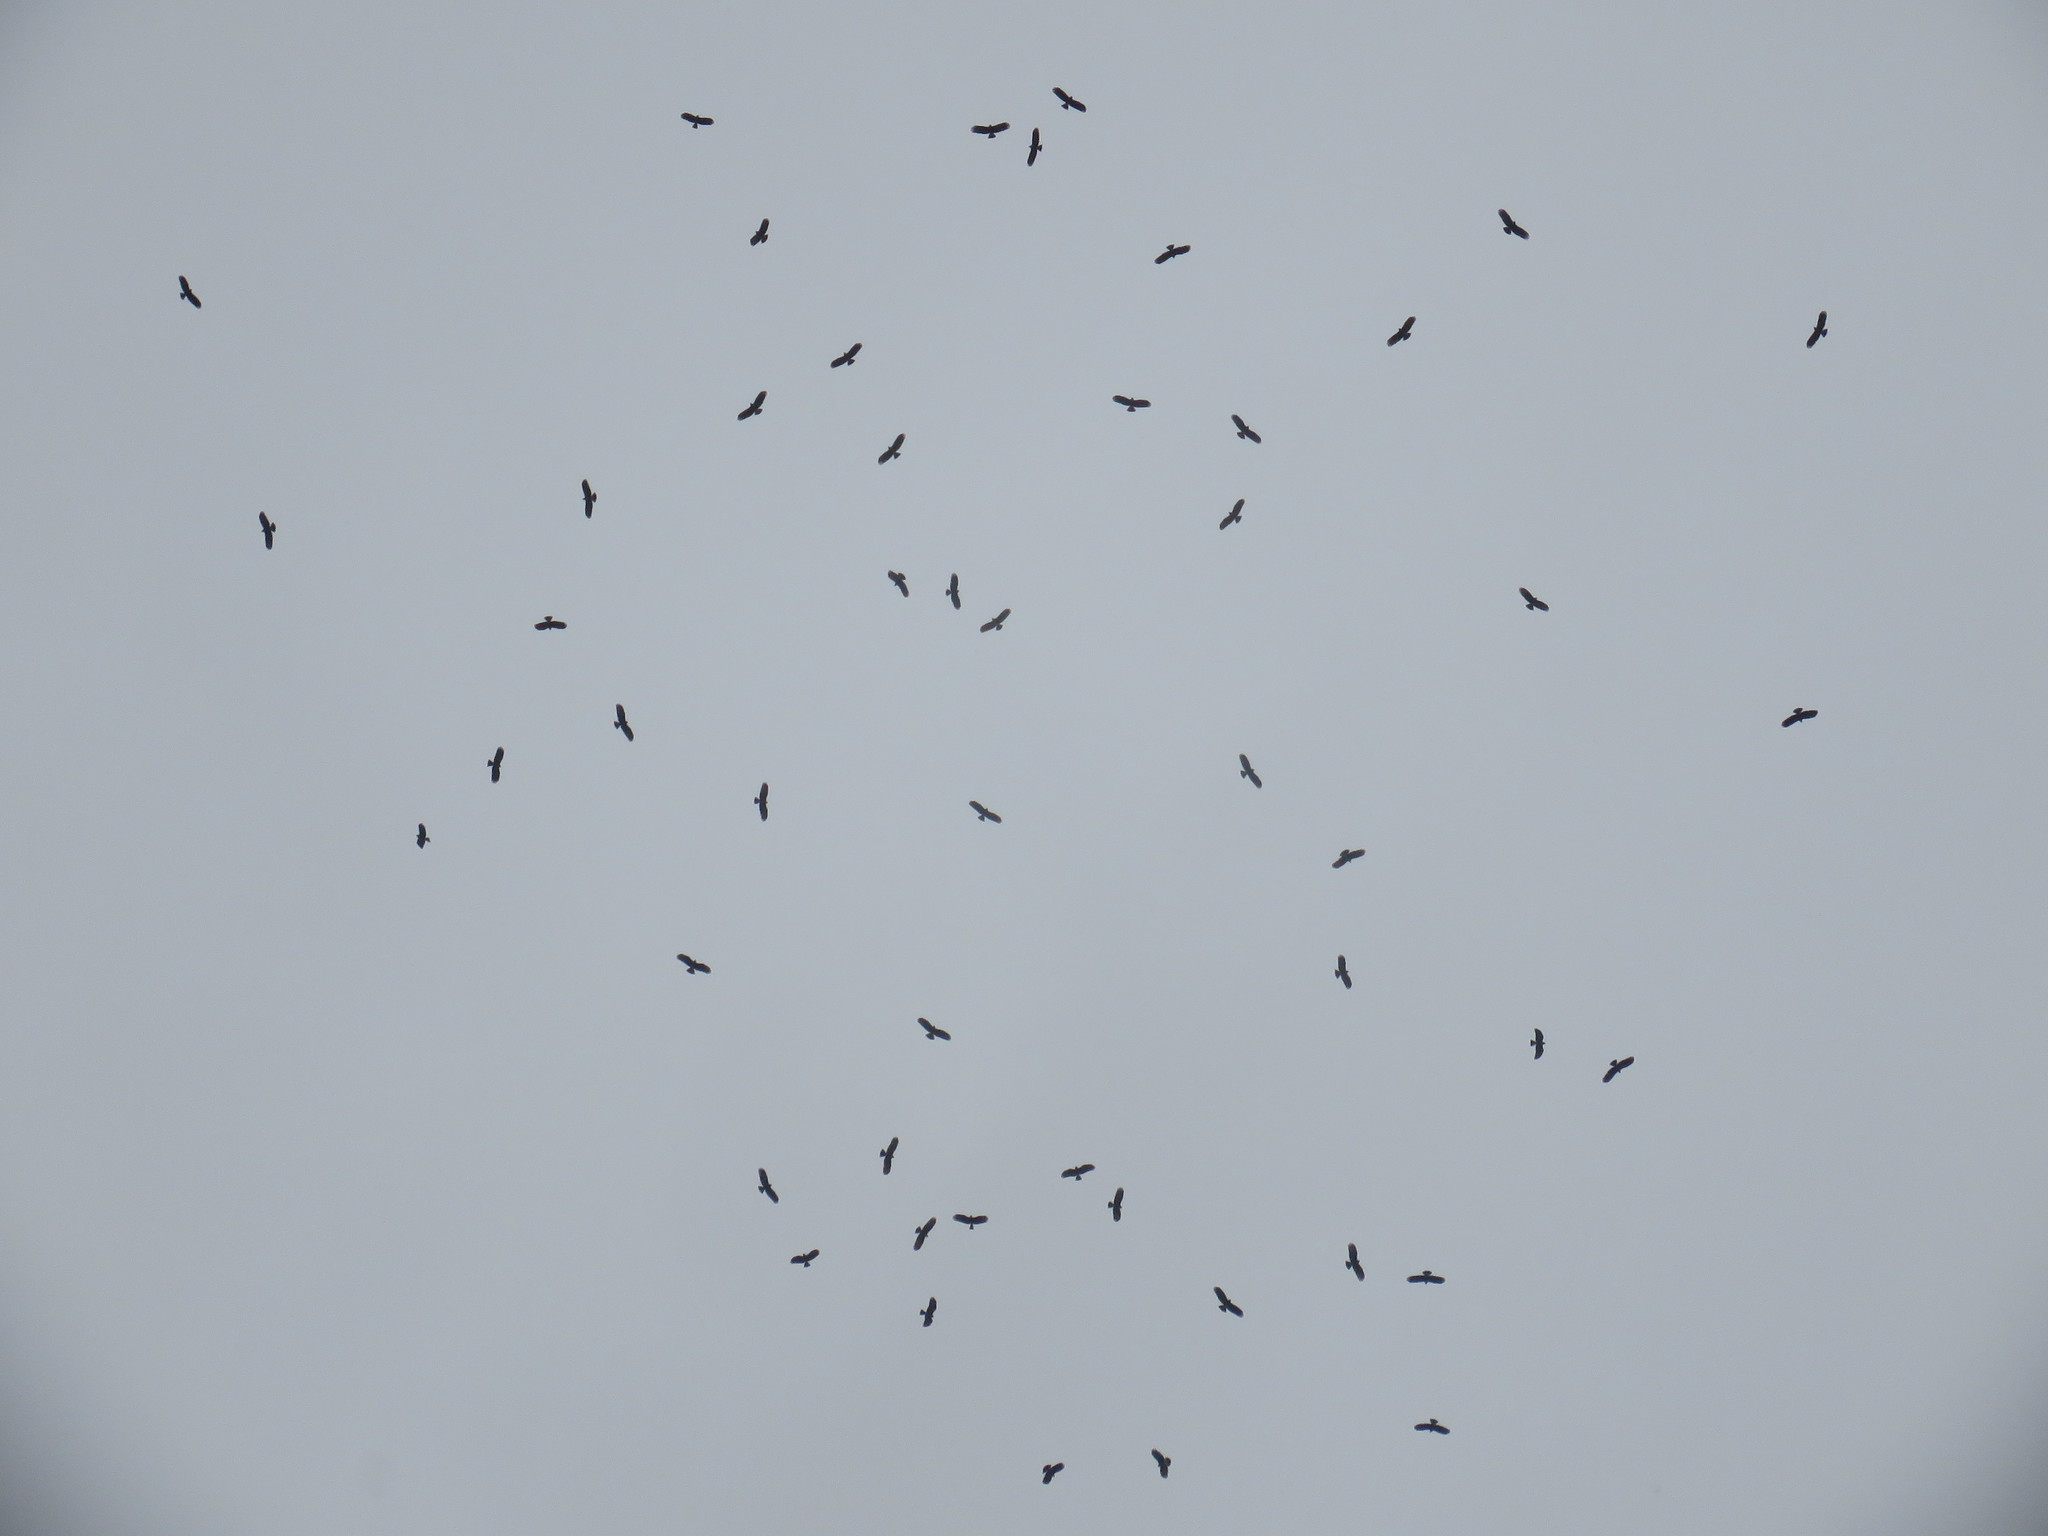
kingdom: Animalia
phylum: Chordata
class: Aves
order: Accipitriformes
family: Accipitridae
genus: Rostrhamus
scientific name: Rostrhamus sociabilis
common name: Snail kite
